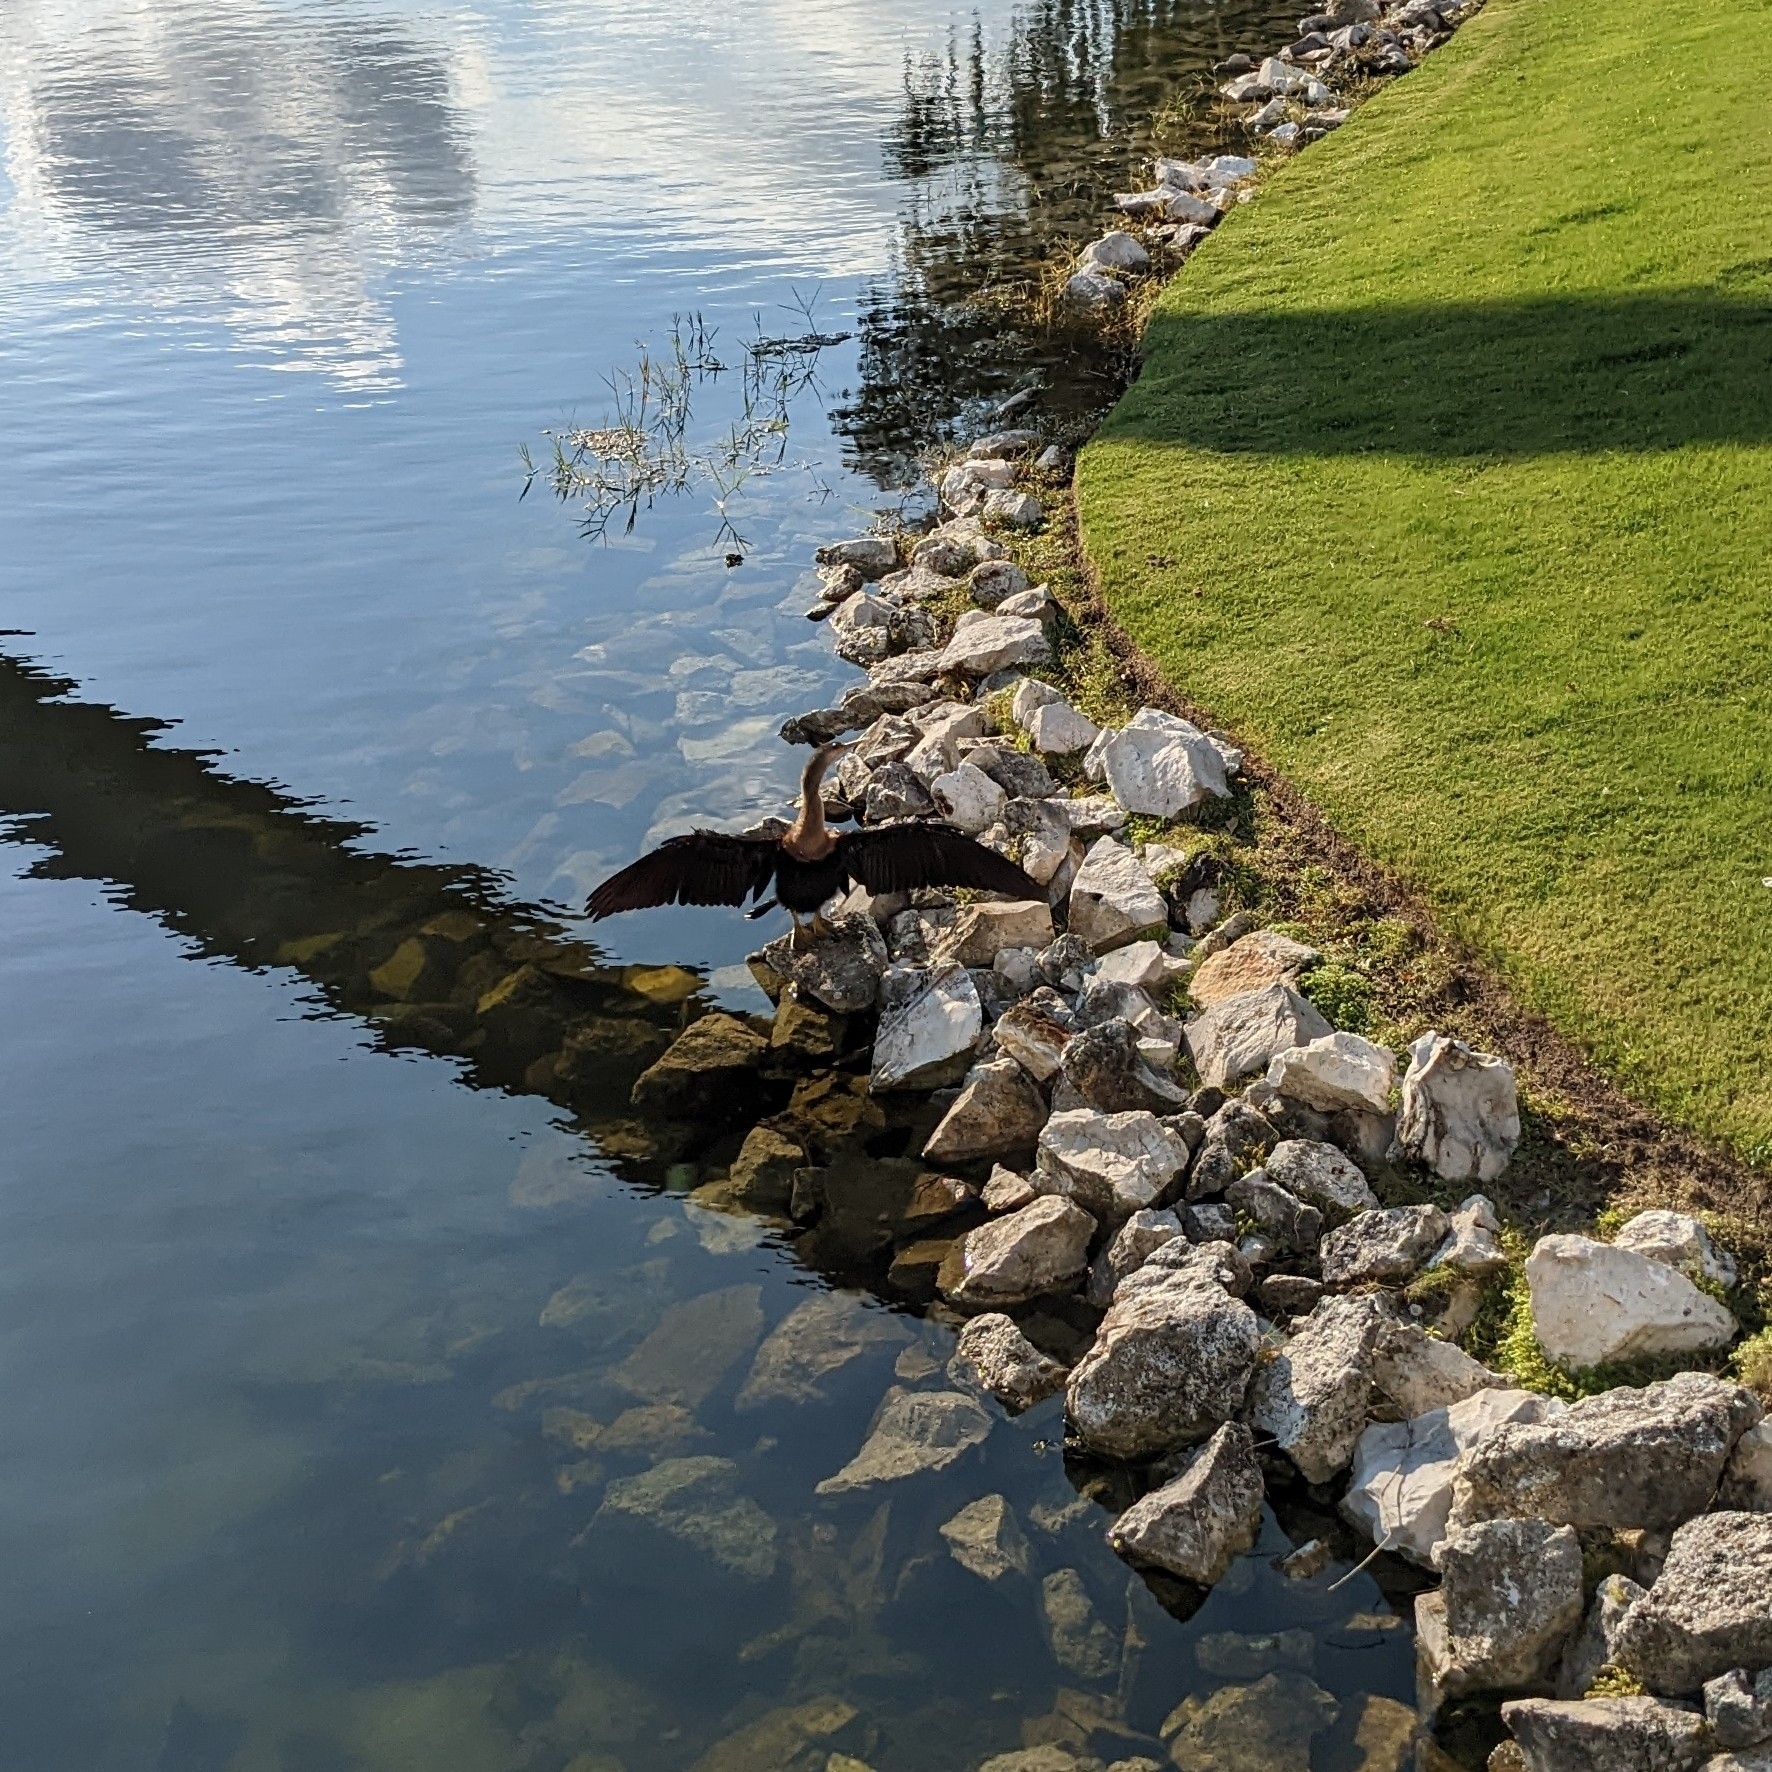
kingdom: Animalia
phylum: Chordata
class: Aves
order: Suliformes
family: Anhingidae
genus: Anhinga
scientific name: Anhinga anhinga
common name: Anhinga
